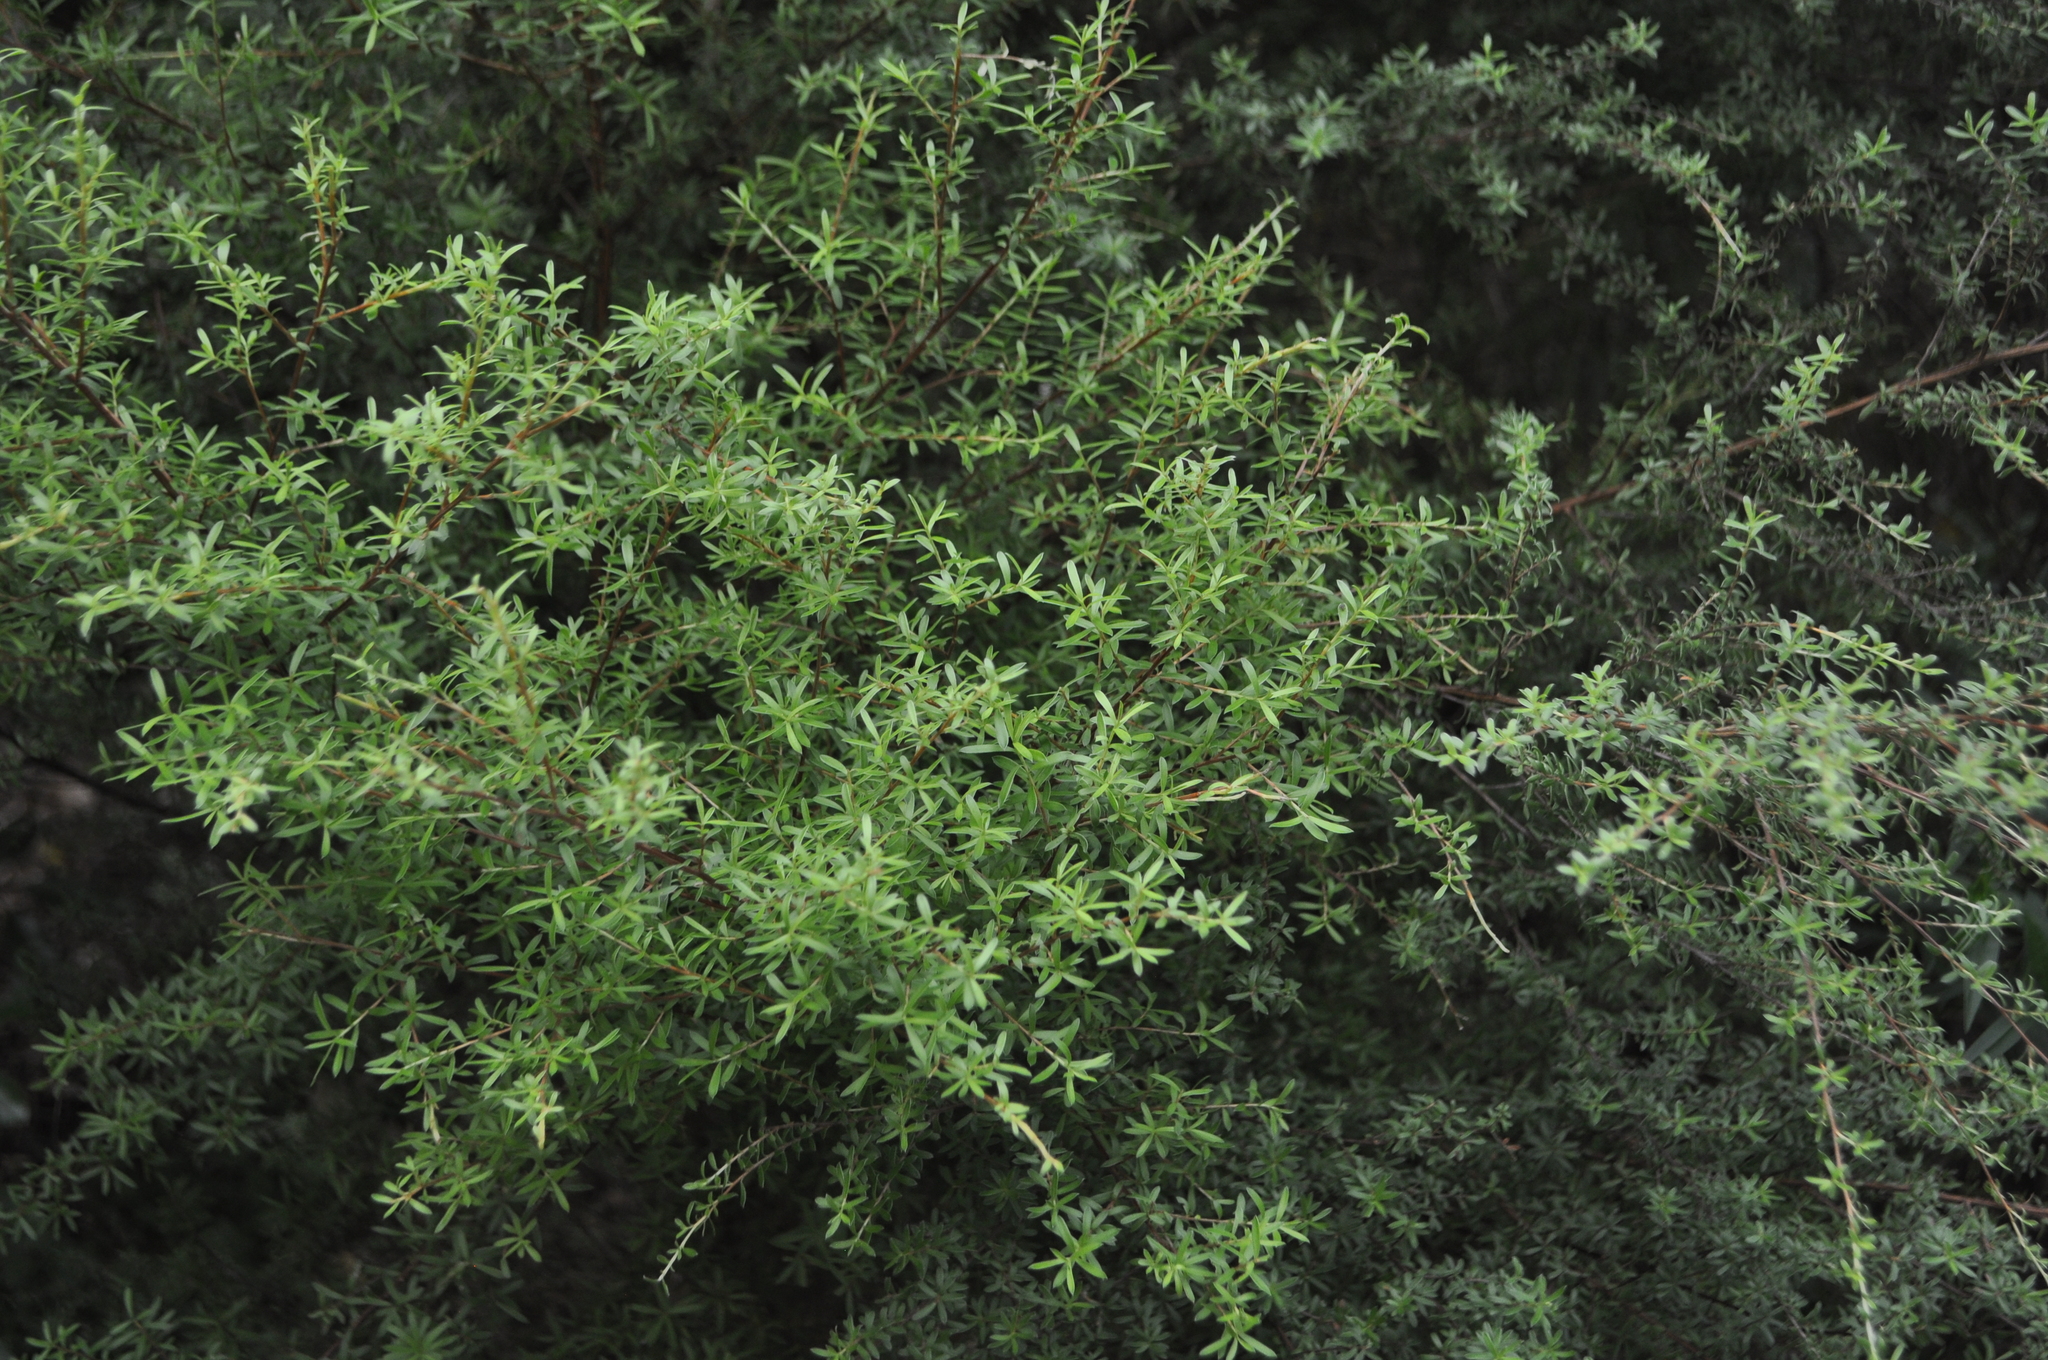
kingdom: Plantae
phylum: Tracheophyta
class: Magnoliopsida
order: Ericales
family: Ericaceae
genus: Leucopogon
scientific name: Leucopogon fasciculatus
